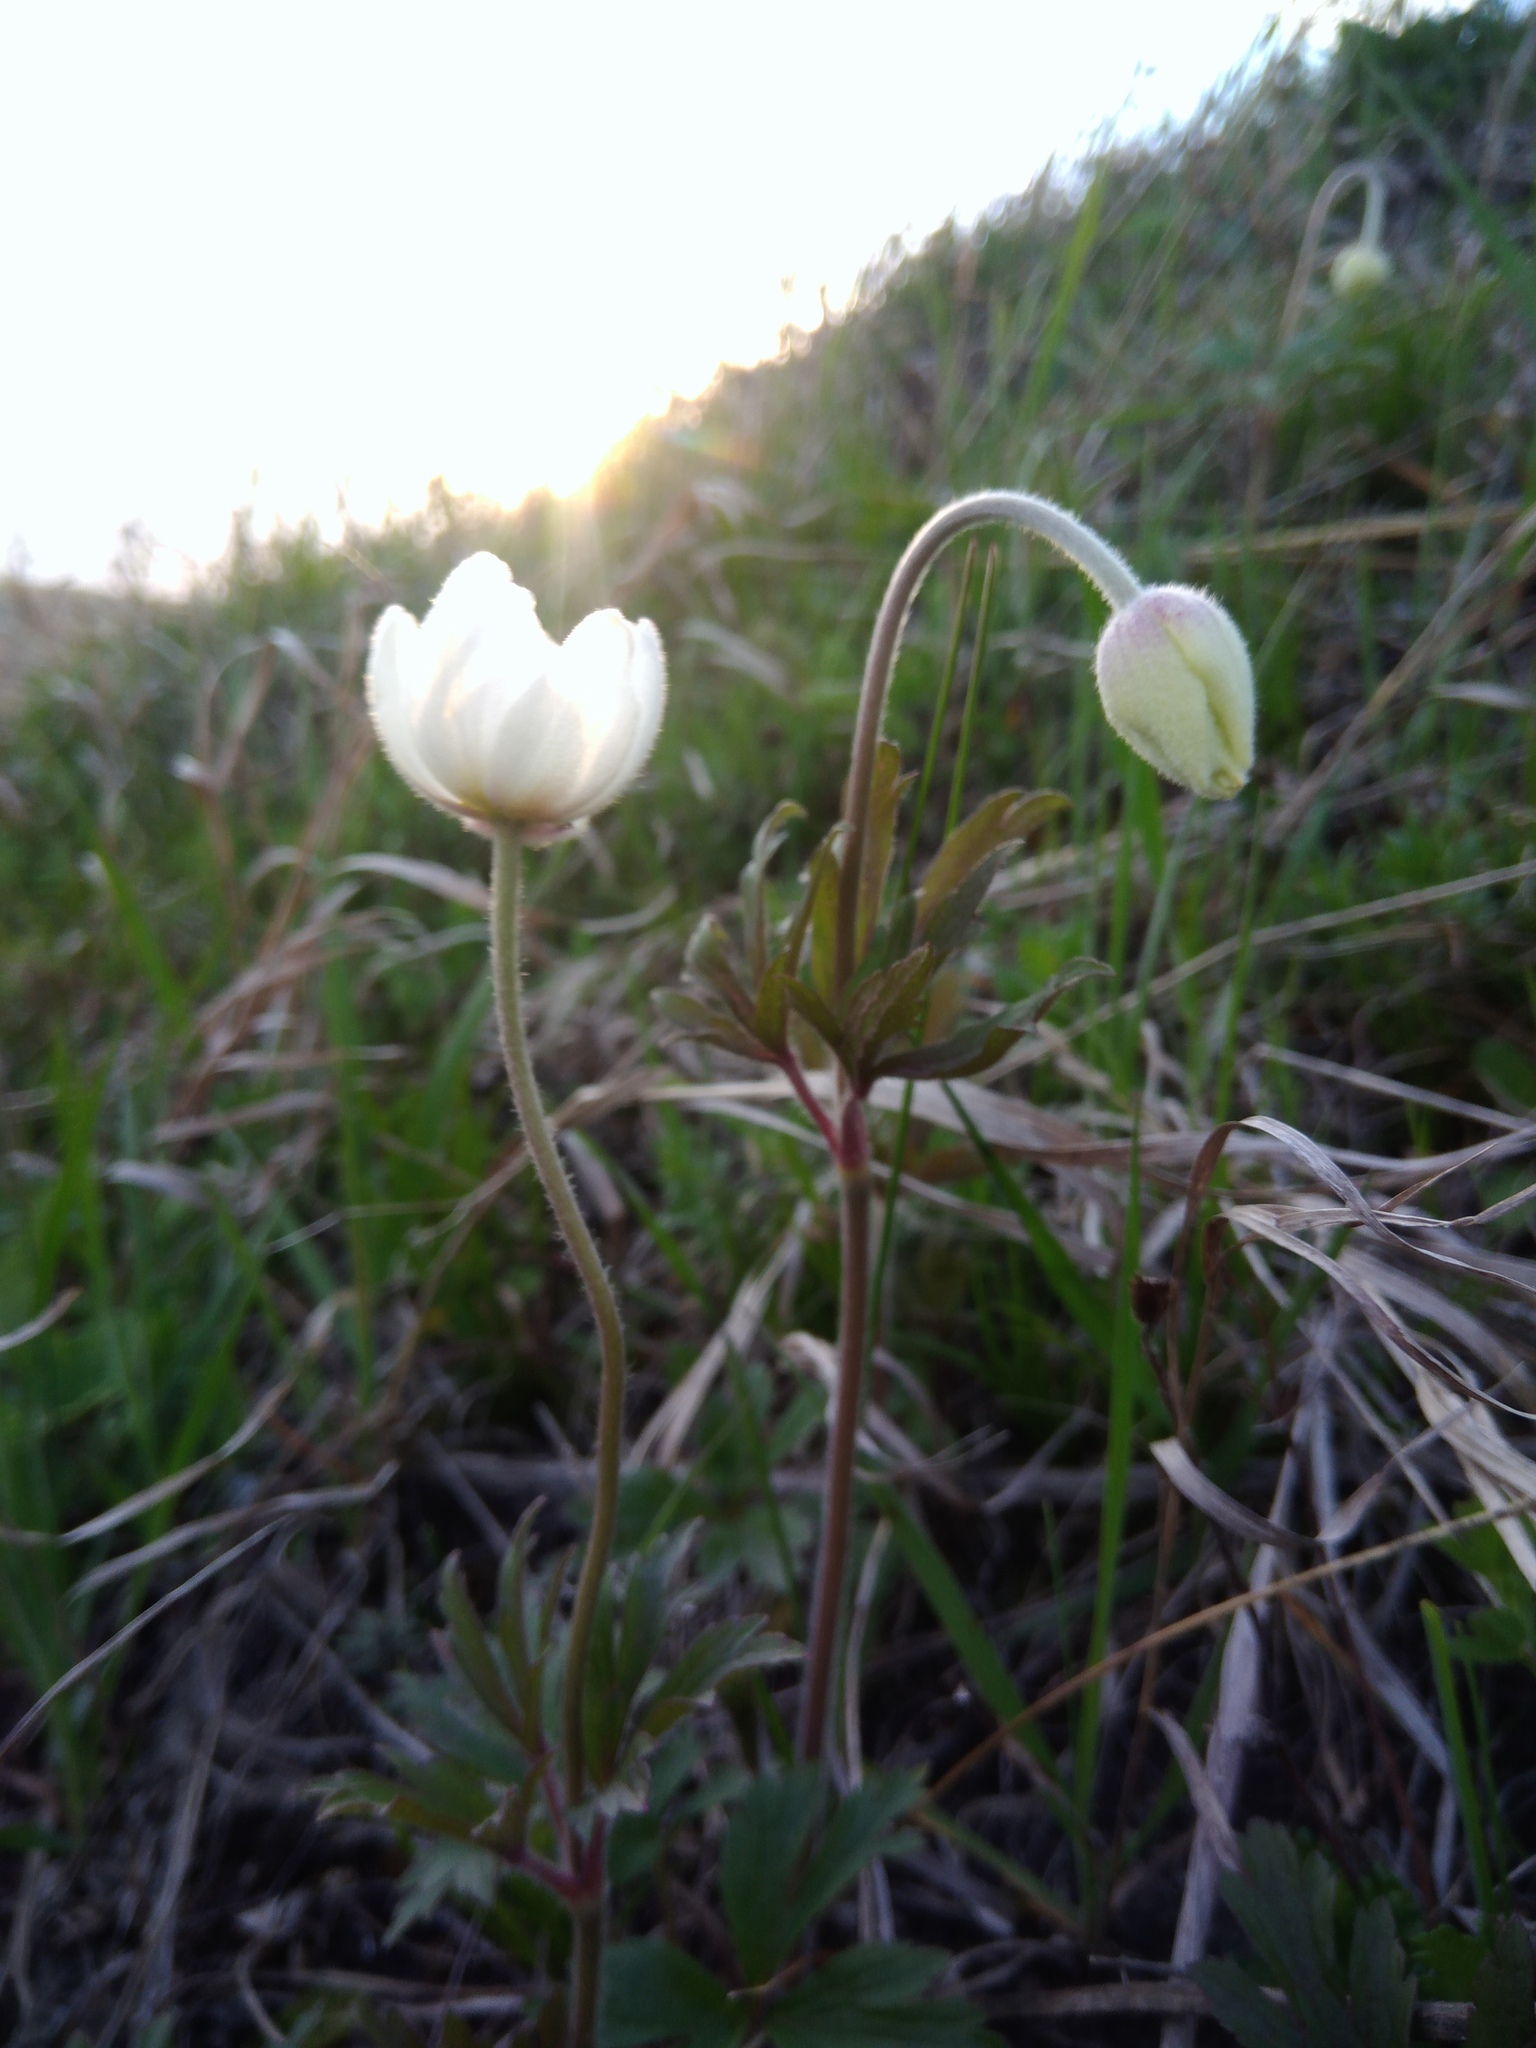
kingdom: Plantae
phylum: Tracheophyta
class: Magnoliopsida
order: Ranunculales
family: Ranunculaceae
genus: Anemone
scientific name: Anemone sylvestris
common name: Snowdrop anemone
